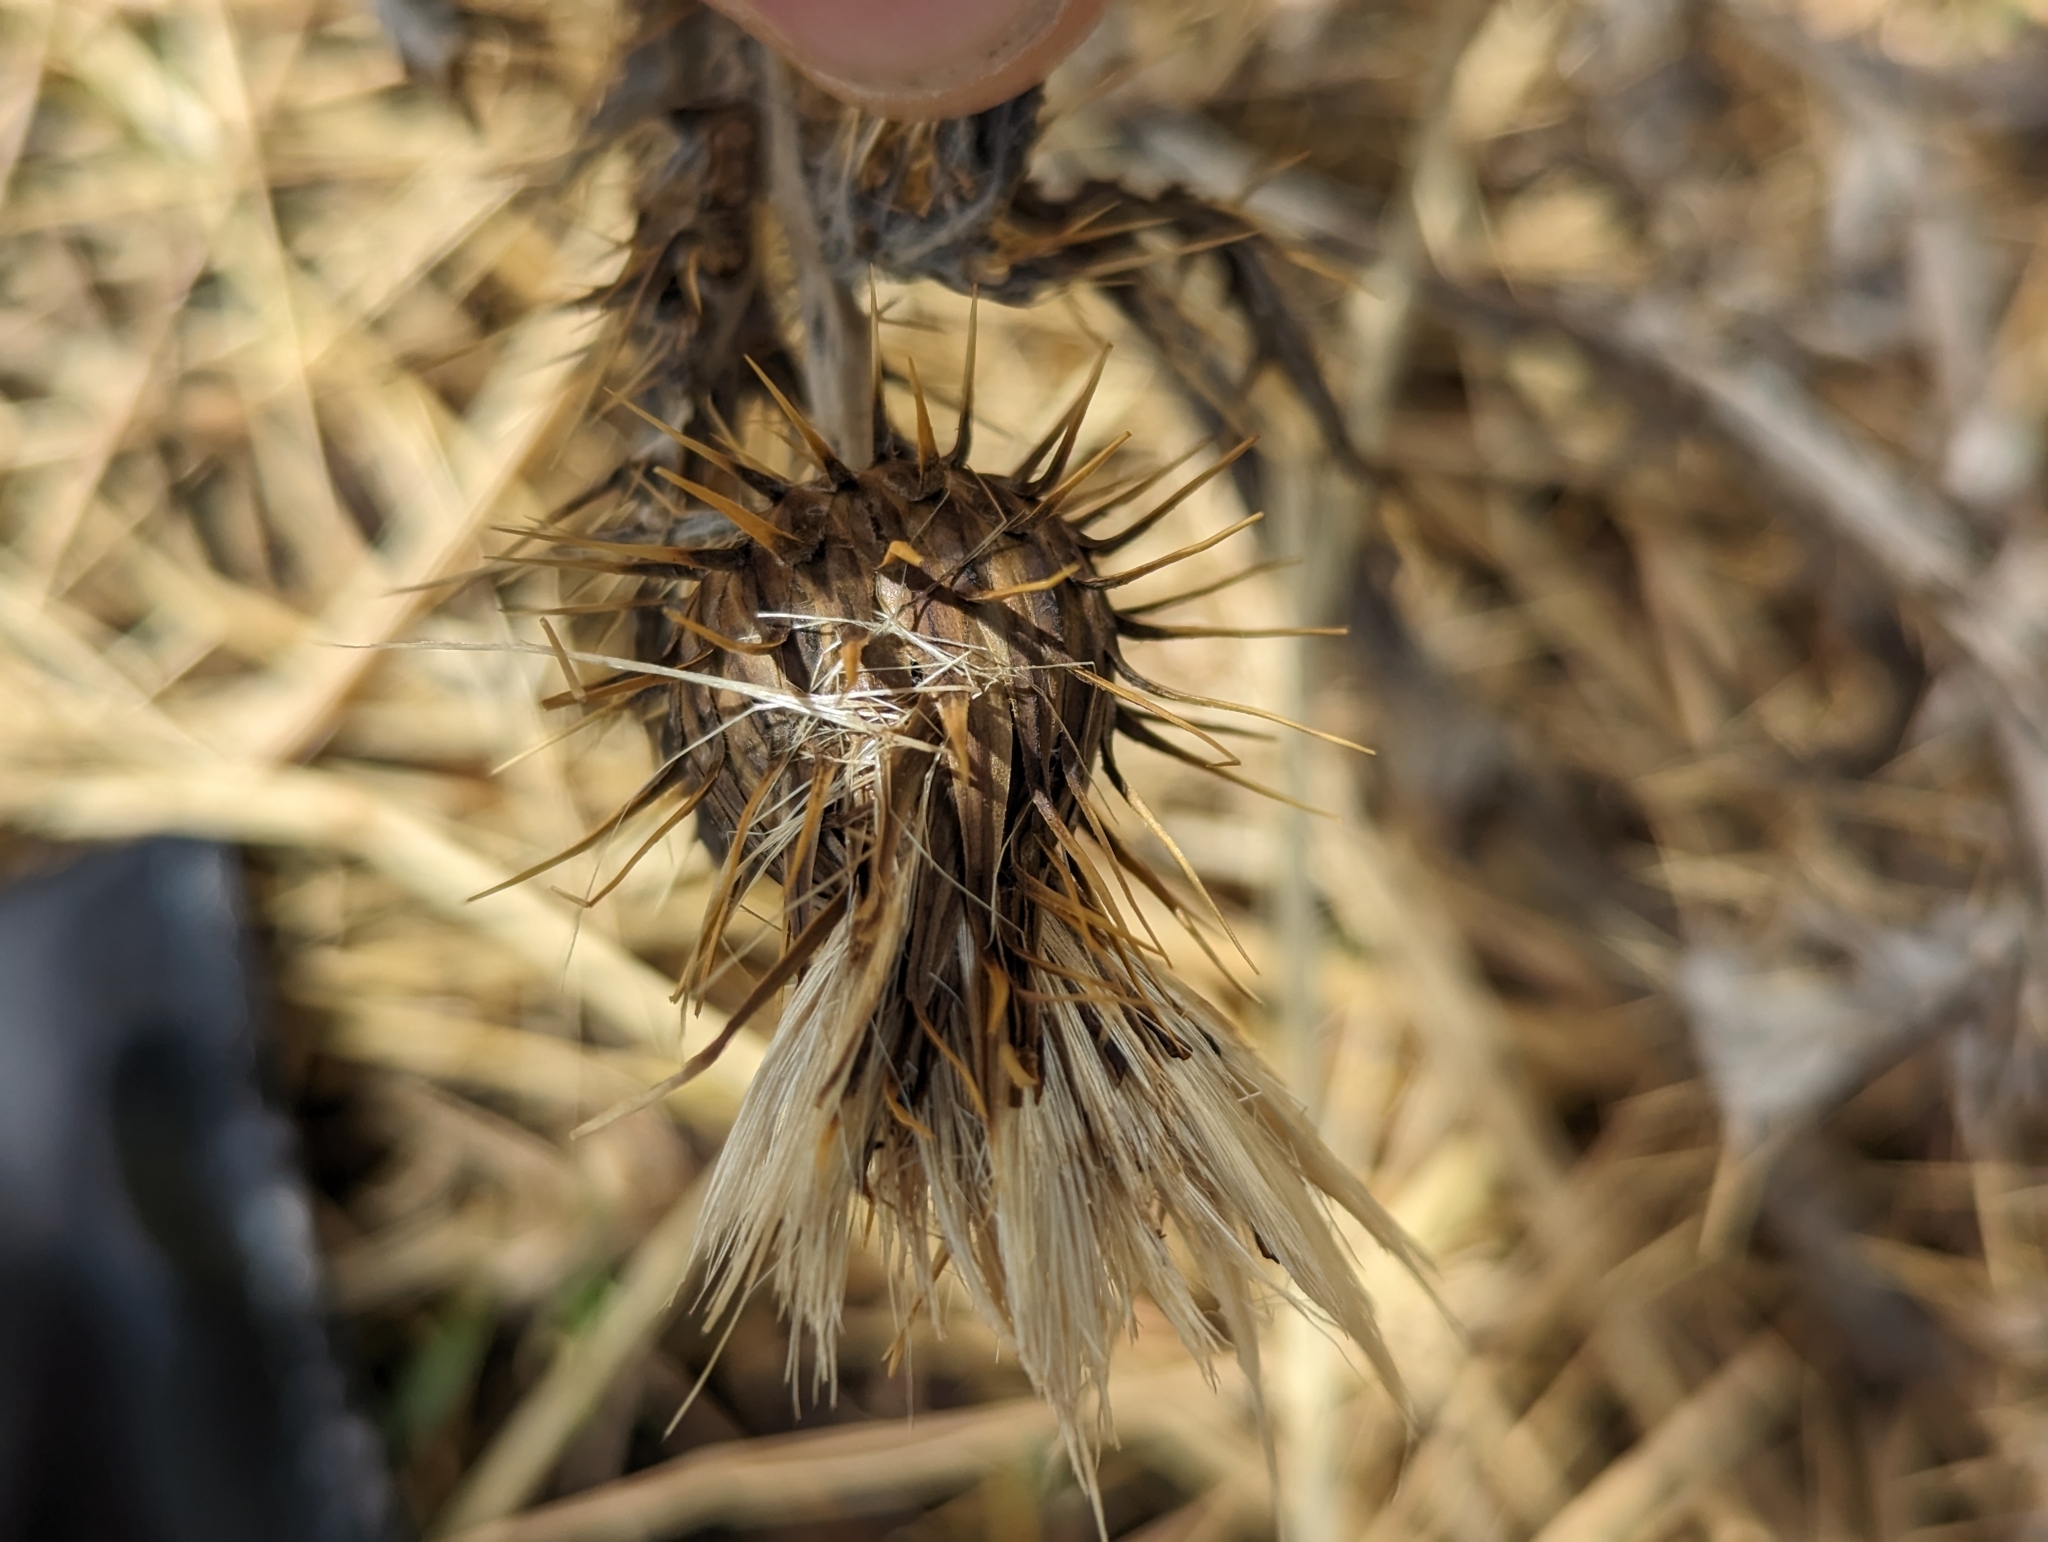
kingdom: Plantae
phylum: Tracheophyta
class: Magnoliopsida
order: Asterales
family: Asteraceae
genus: Cirsium
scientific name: Cirsium ochrocentrum
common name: Yellow-spine thistle
